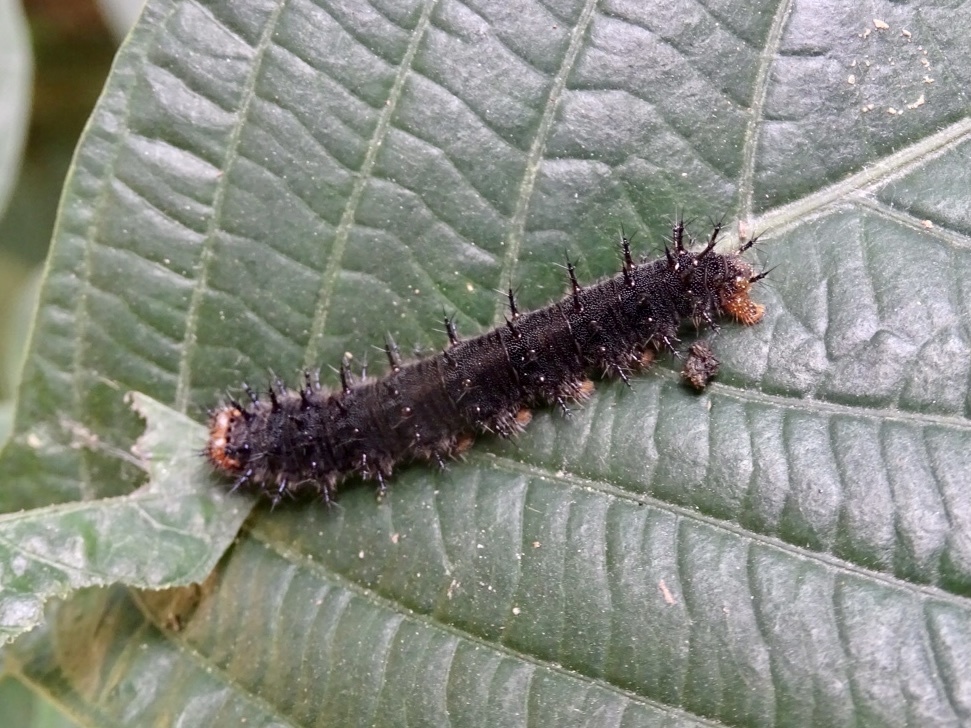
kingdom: Animalia
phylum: Arthropoda
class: Insecta
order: Lepidoptera
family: Nymphalidae
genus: Junonia
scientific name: Junonia lemonias
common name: Lemon pansy
